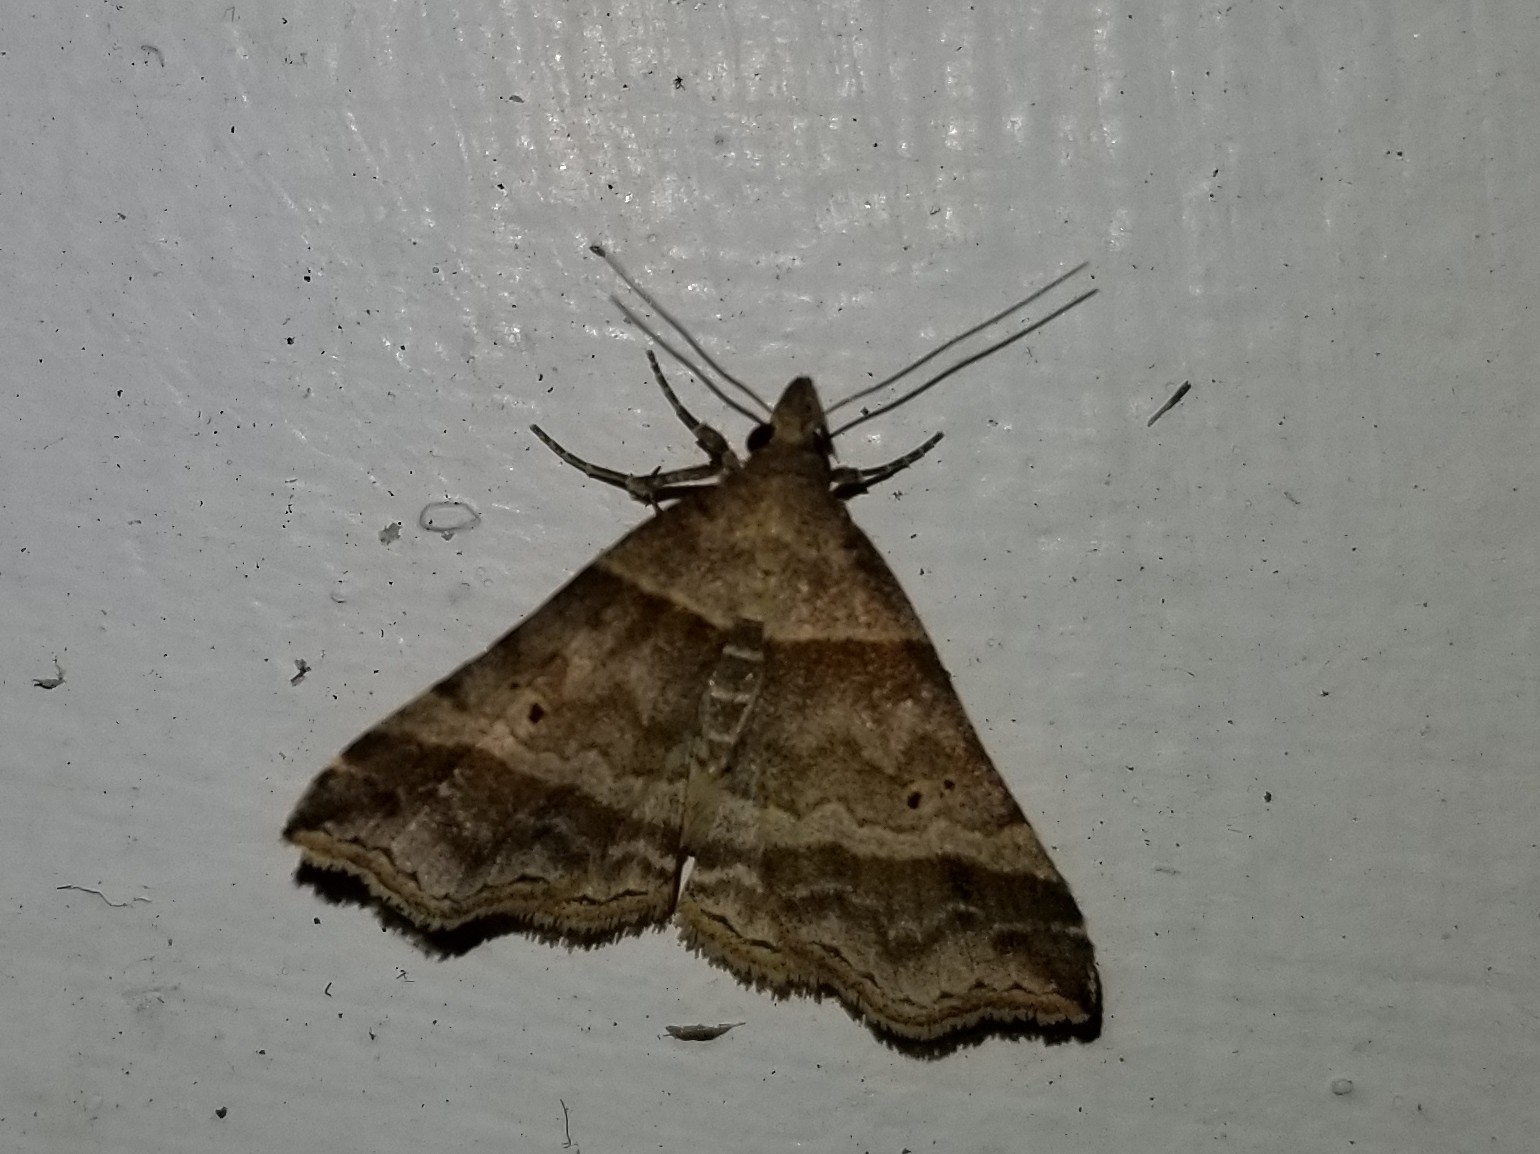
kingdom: Animalia
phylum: Arthropoda
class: Insecta
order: Lepidoptera
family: Erebidae
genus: Phaeolita
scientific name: Phaeolita pyramusalis
